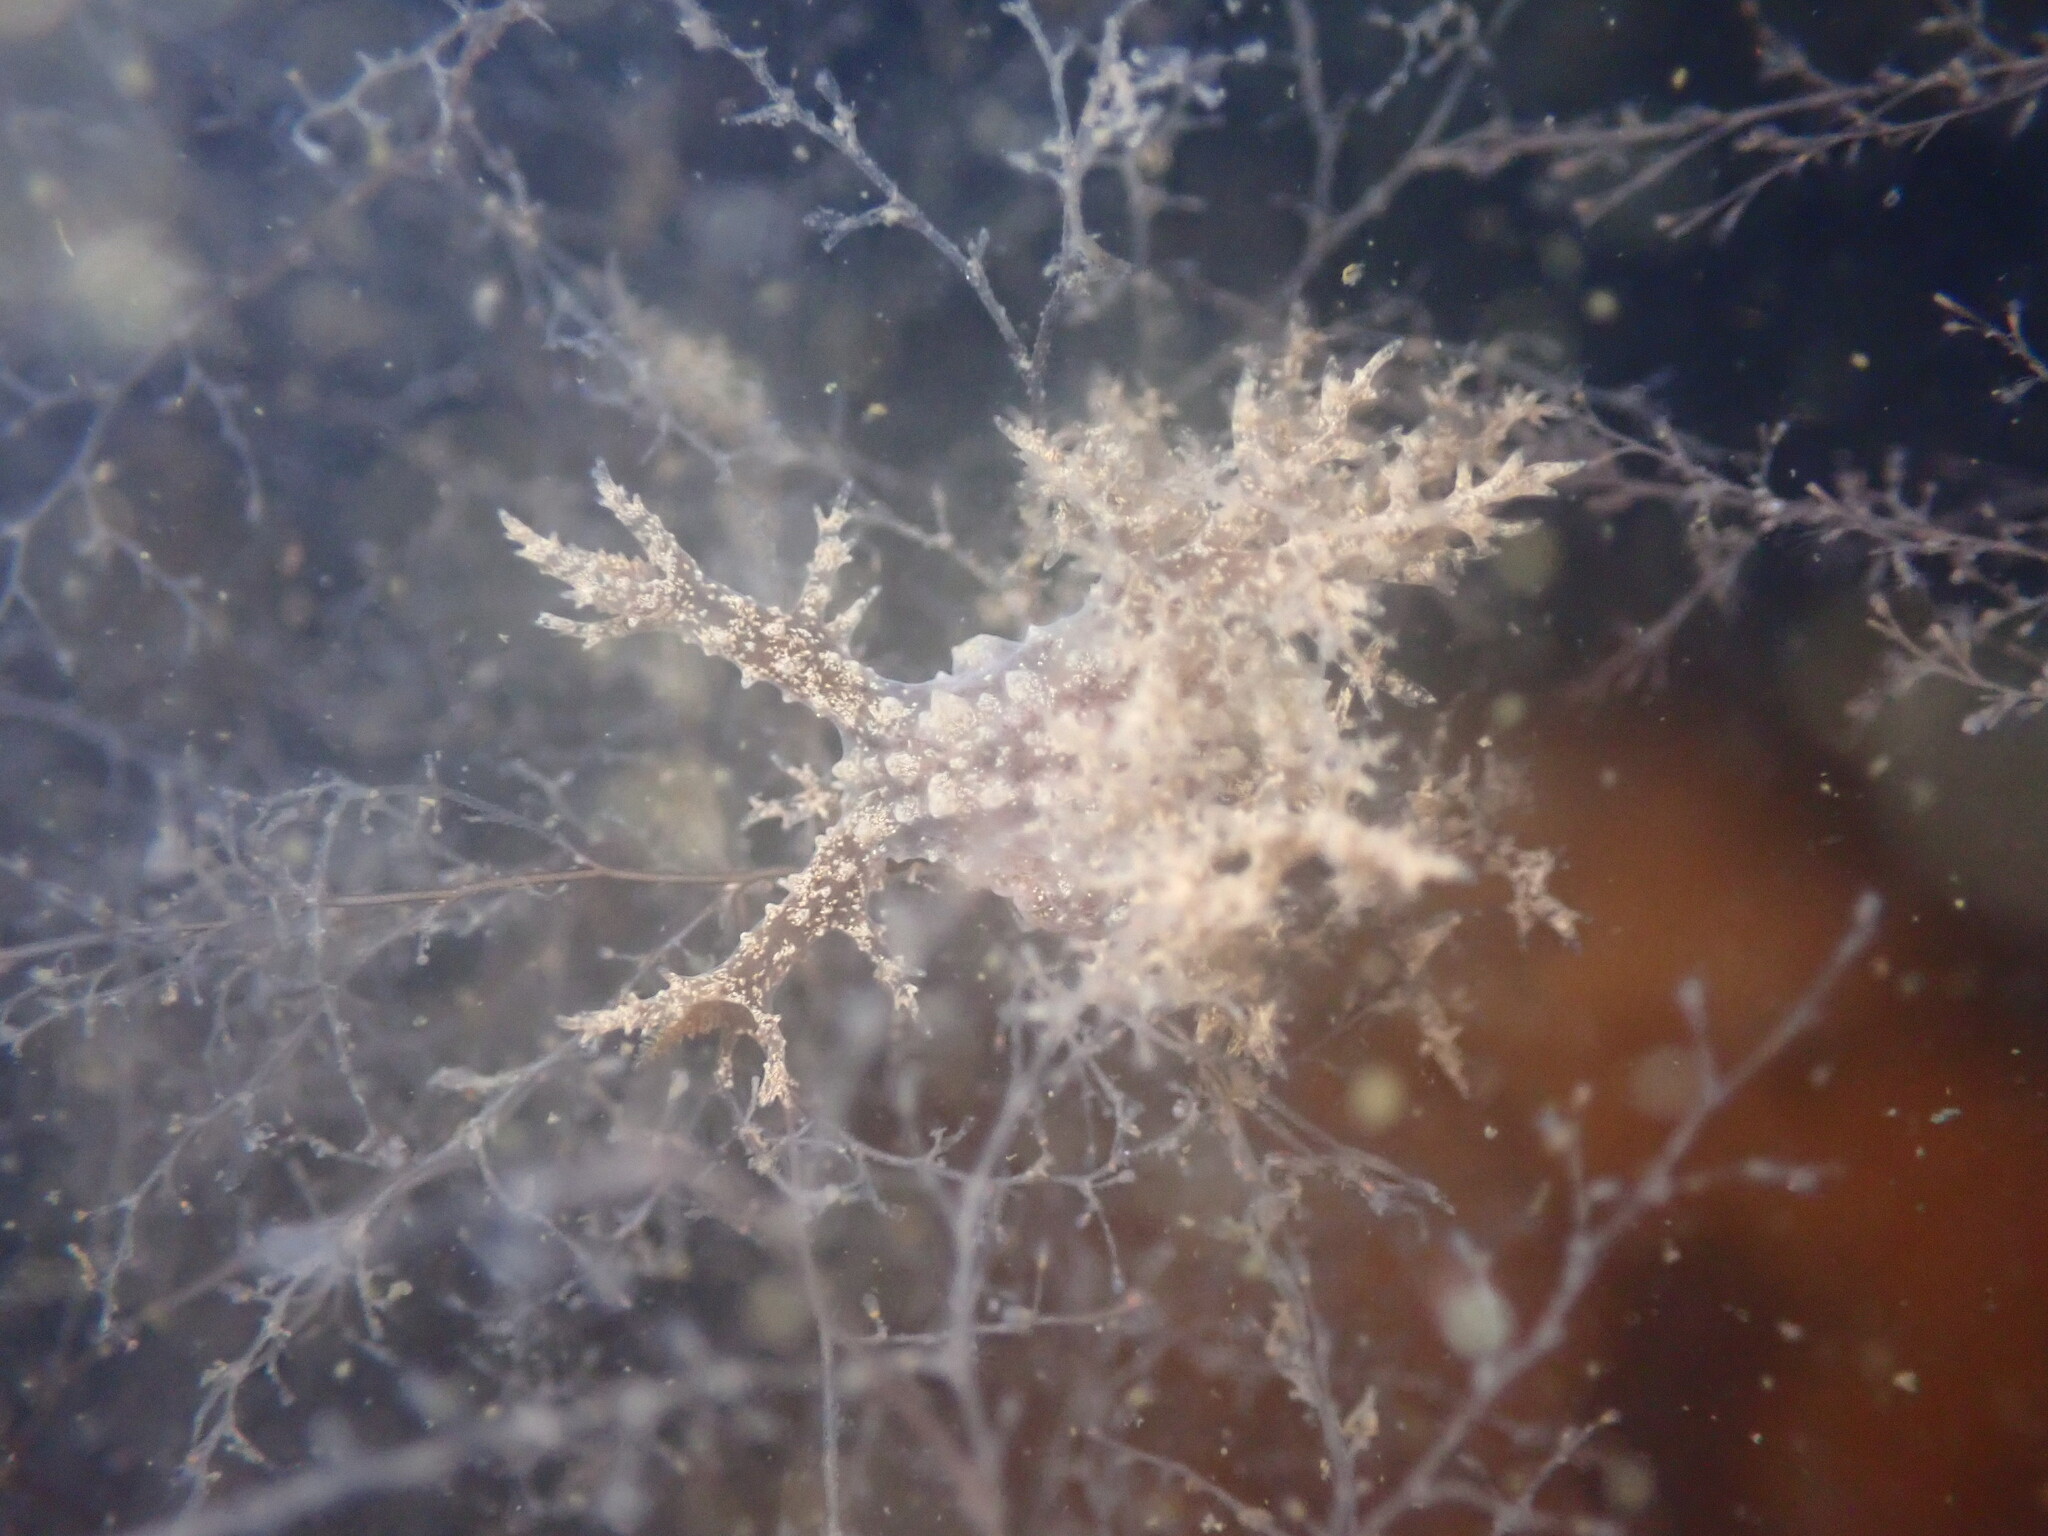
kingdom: Animalia
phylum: Mollusca
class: Gastropoda
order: Nudibranchia
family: Dendronotidae
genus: Dendronotus
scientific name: Dendronotus venustus
